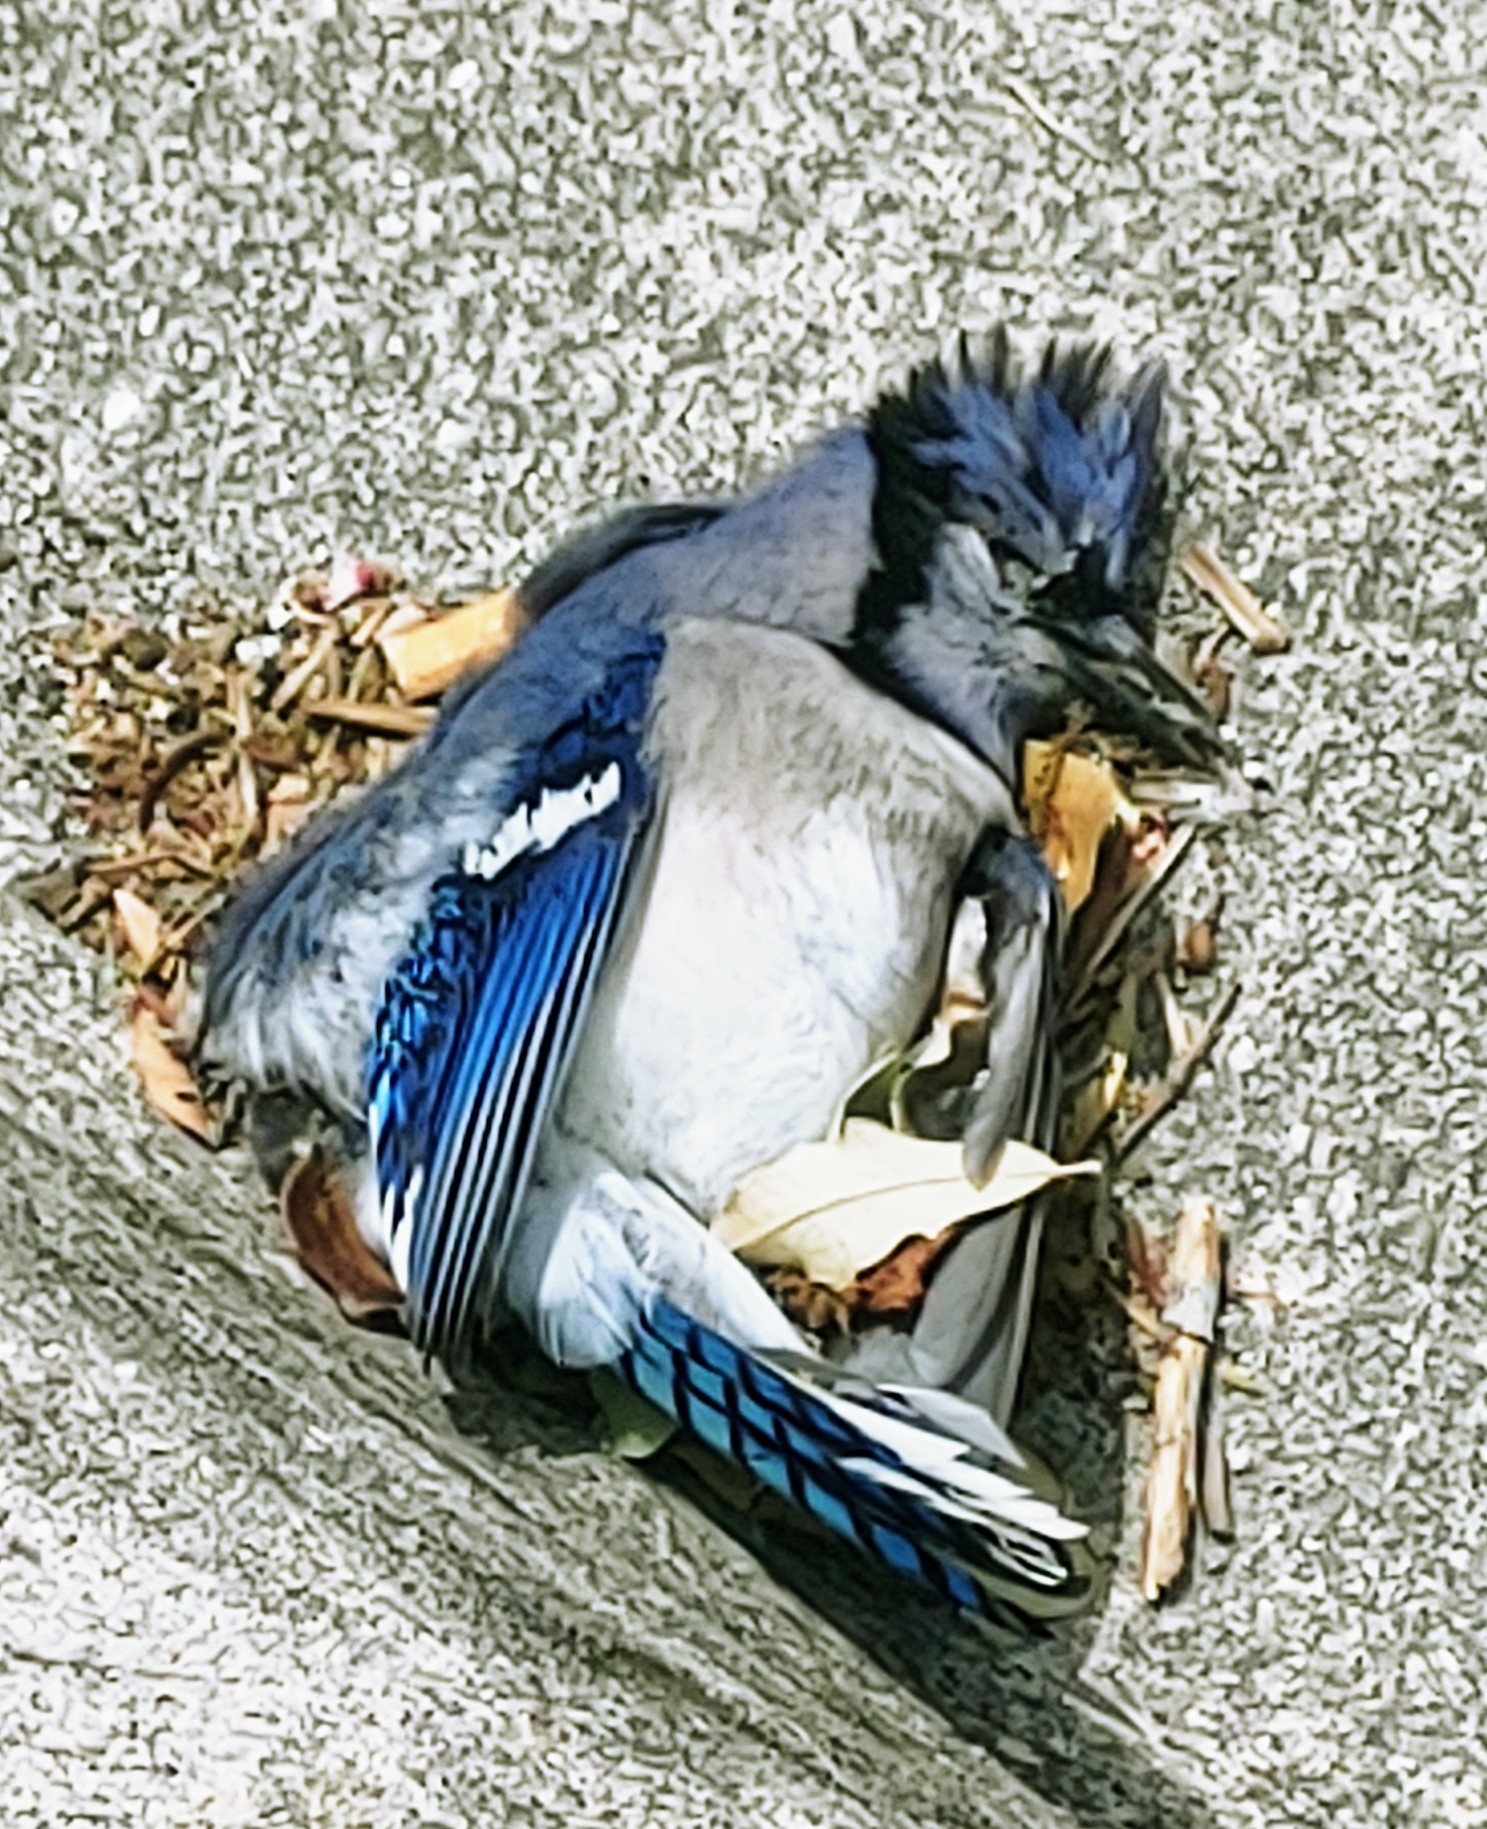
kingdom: Animalia
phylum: Chordata
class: Aves
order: Passeriformes
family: Corvidae
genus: Cyanocitta
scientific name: Cyanocitta cristata
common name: Blue jay
